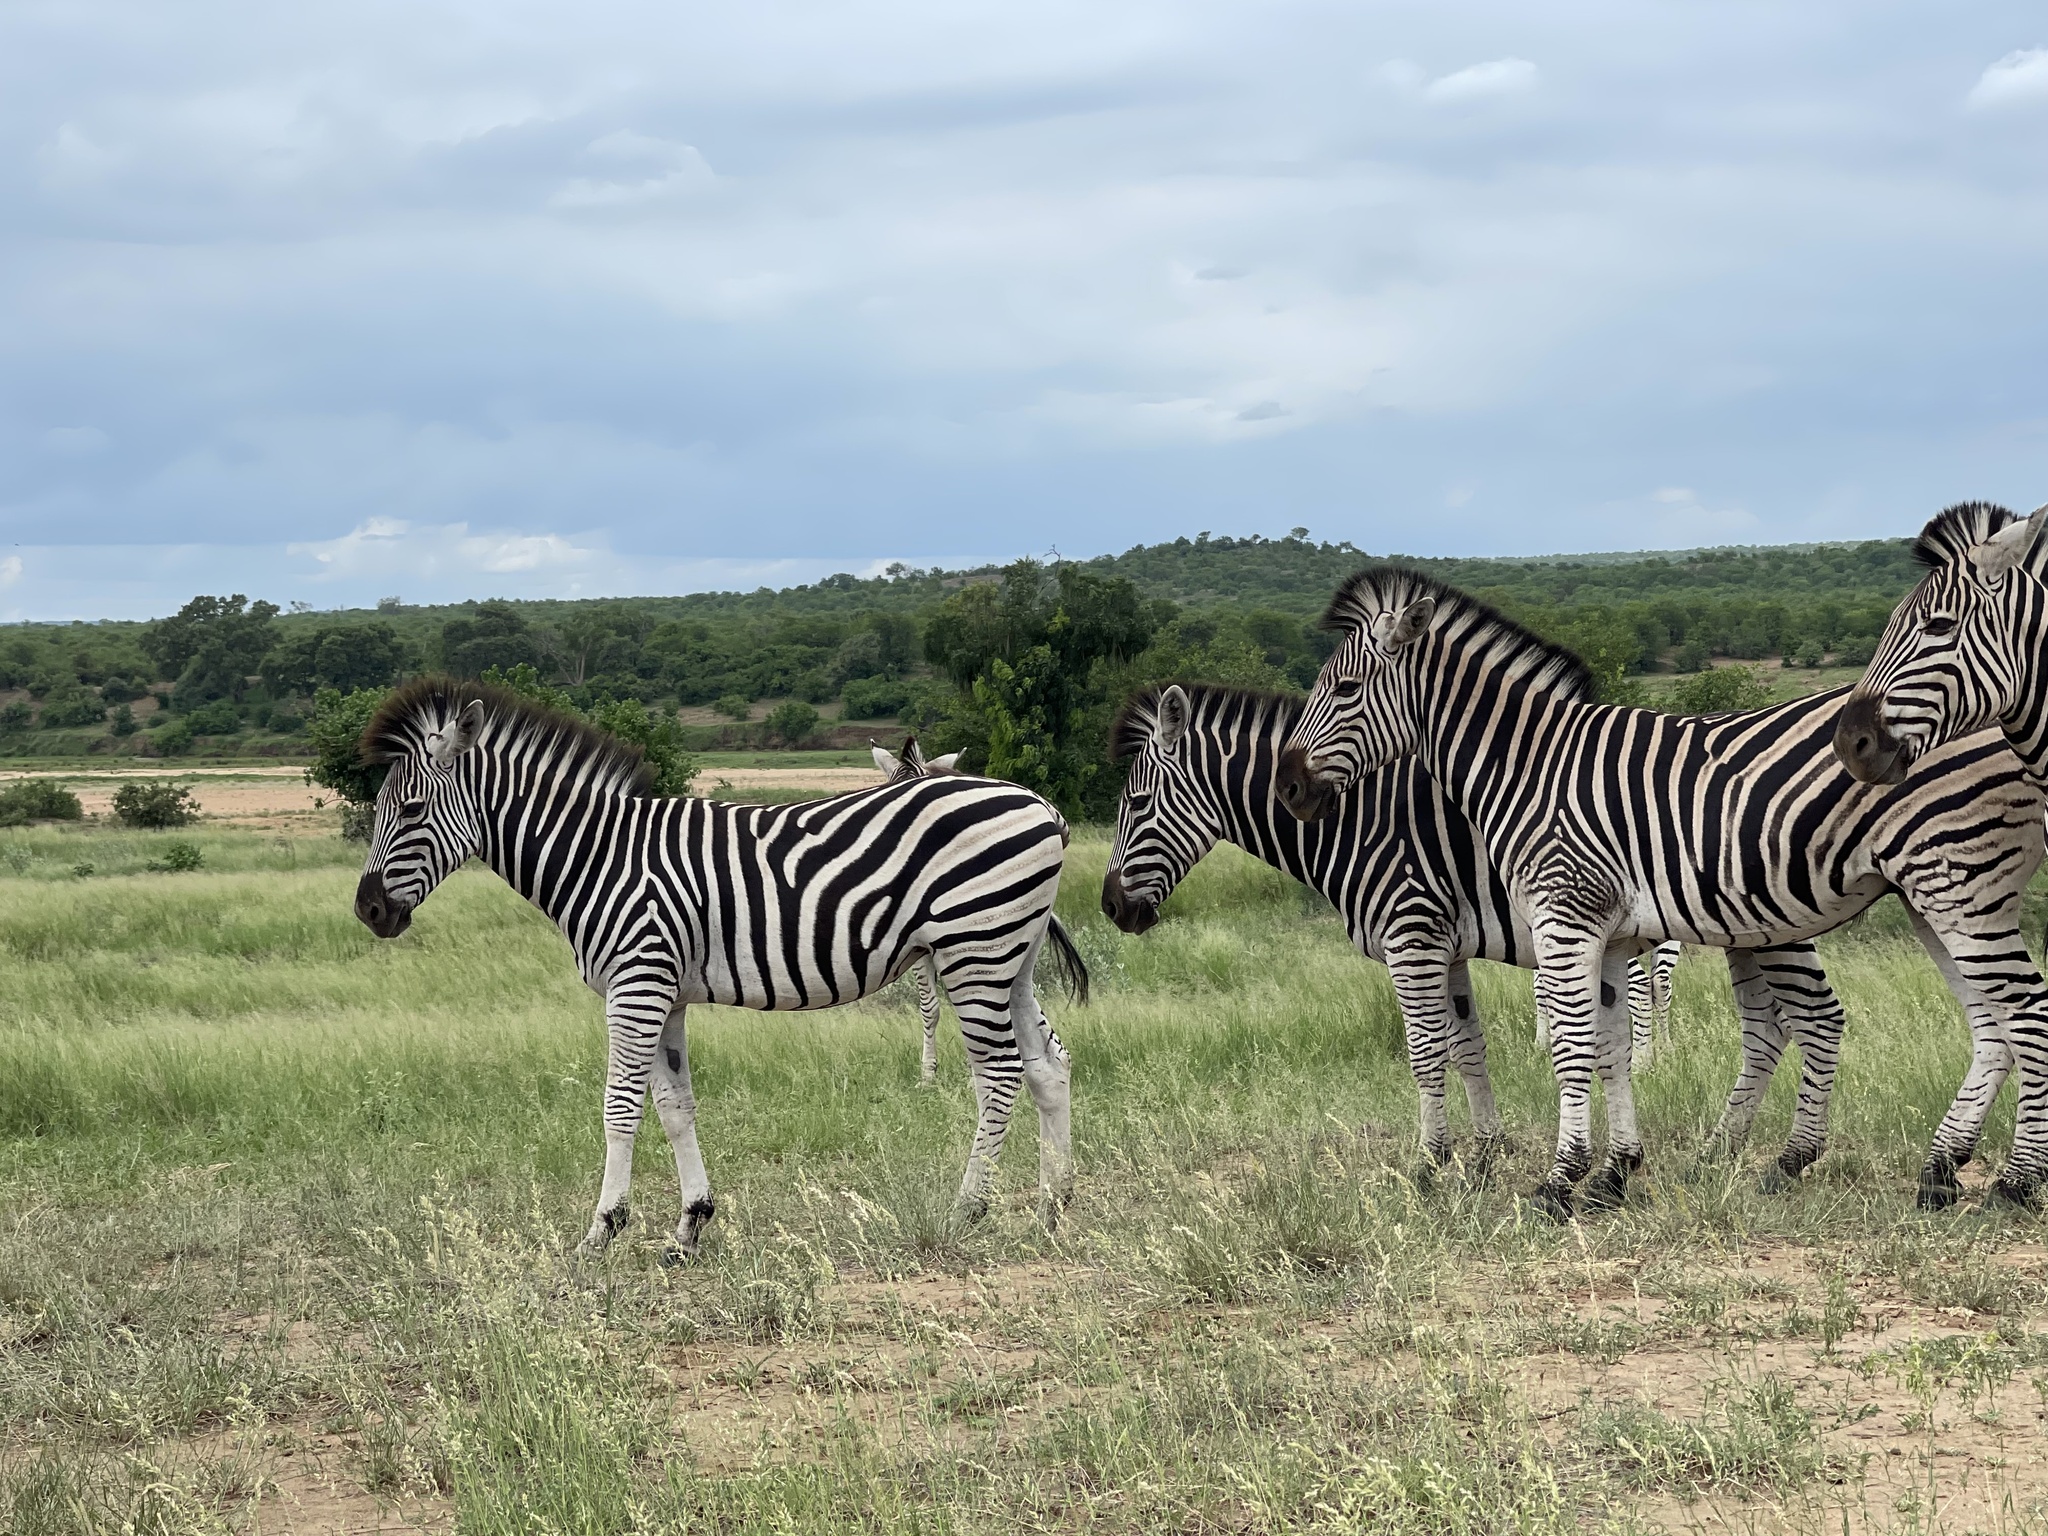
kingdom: Animalia
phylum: Chordata
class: Mammalia
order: Perissodactyla
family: Equidae
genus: Equus
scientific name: Equus quagga
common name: Plains zebra
